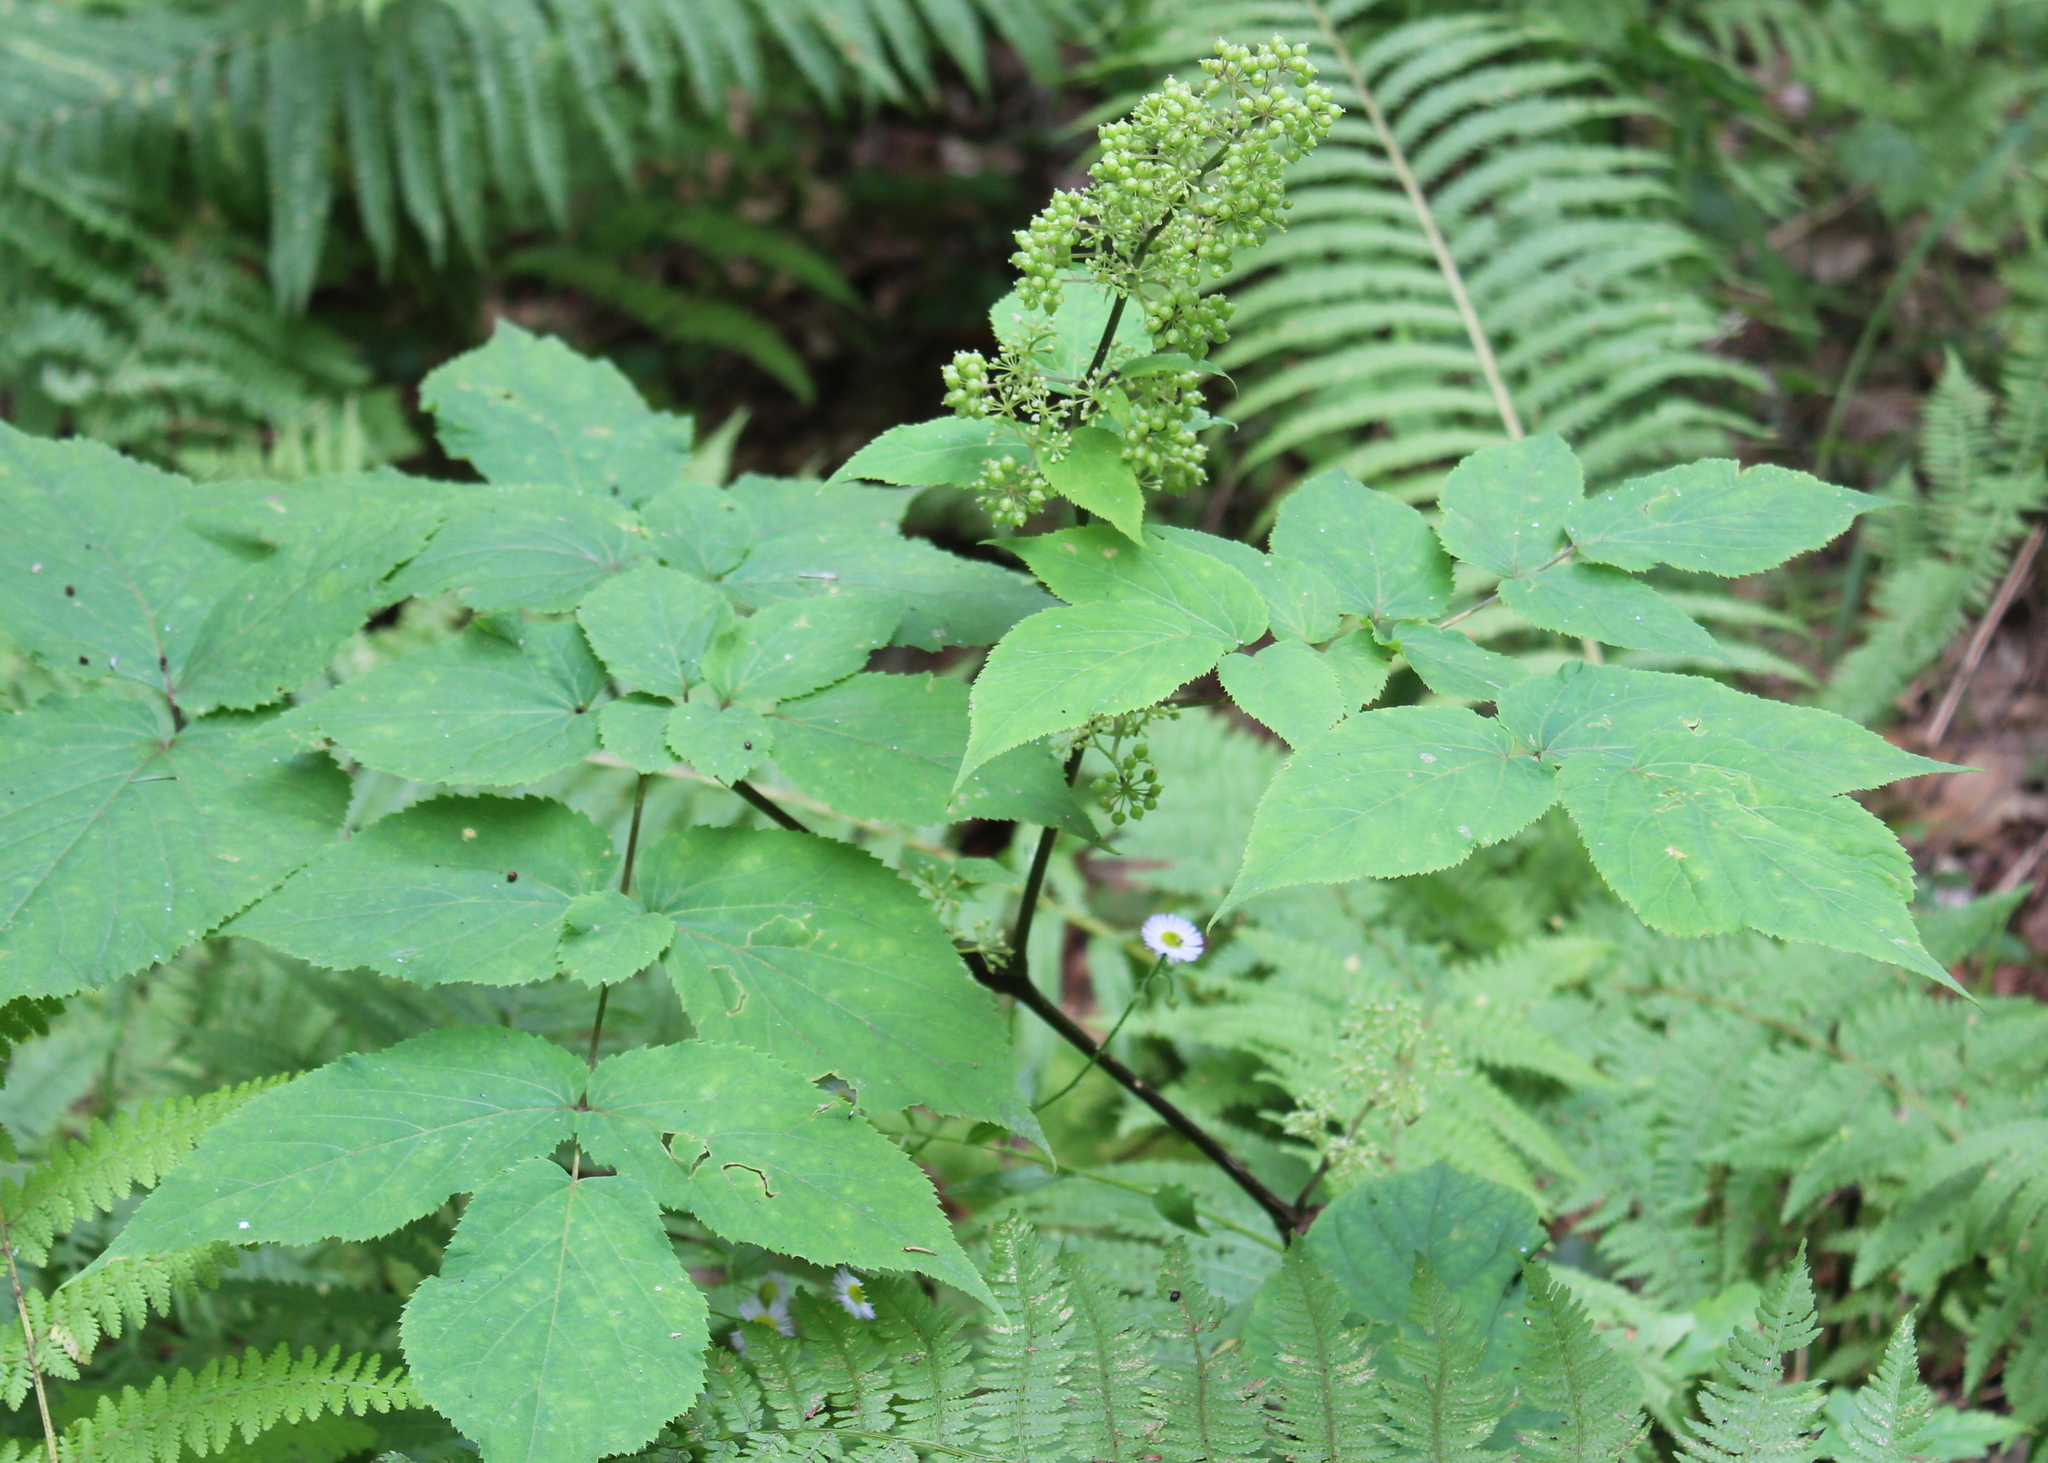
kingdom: Plantae
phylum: Tracheophyta
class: Magnoliopsida
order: Apiales
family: Araliaceae
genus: Aralia
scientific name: Aralia racemosa
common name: American-spikenard
